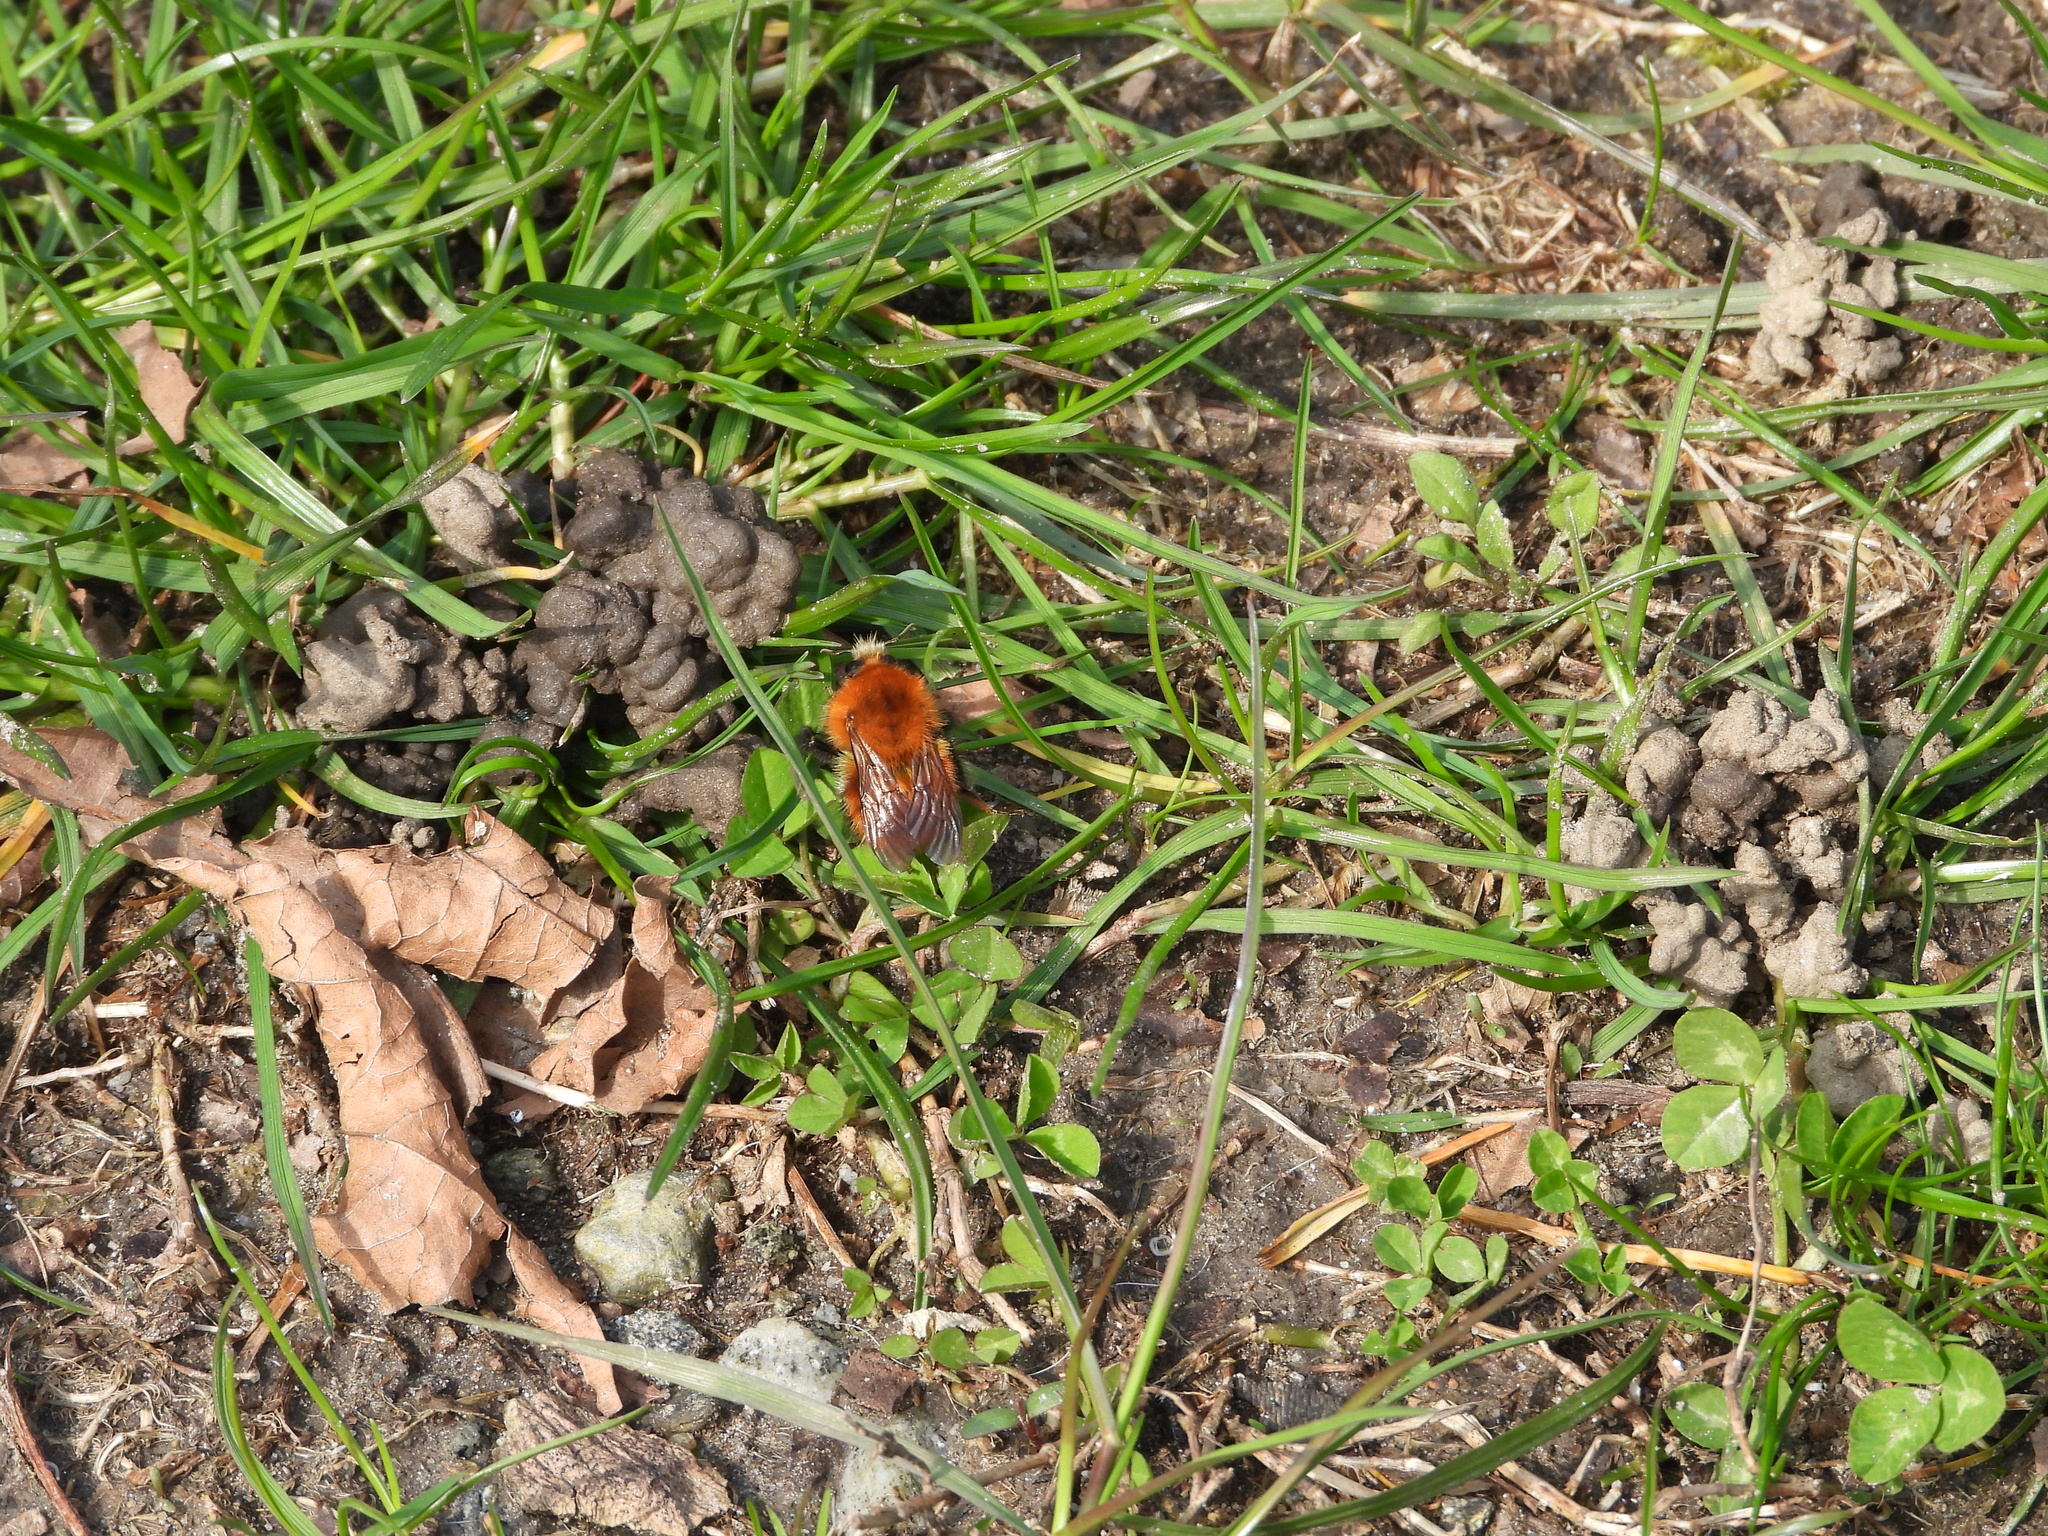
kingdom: Animalia
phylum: Arthropoda
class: Insecta
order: Hymenoptera
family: Apidae
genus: Bombus
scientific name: Bombus pascuorum
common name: Common carder bee
